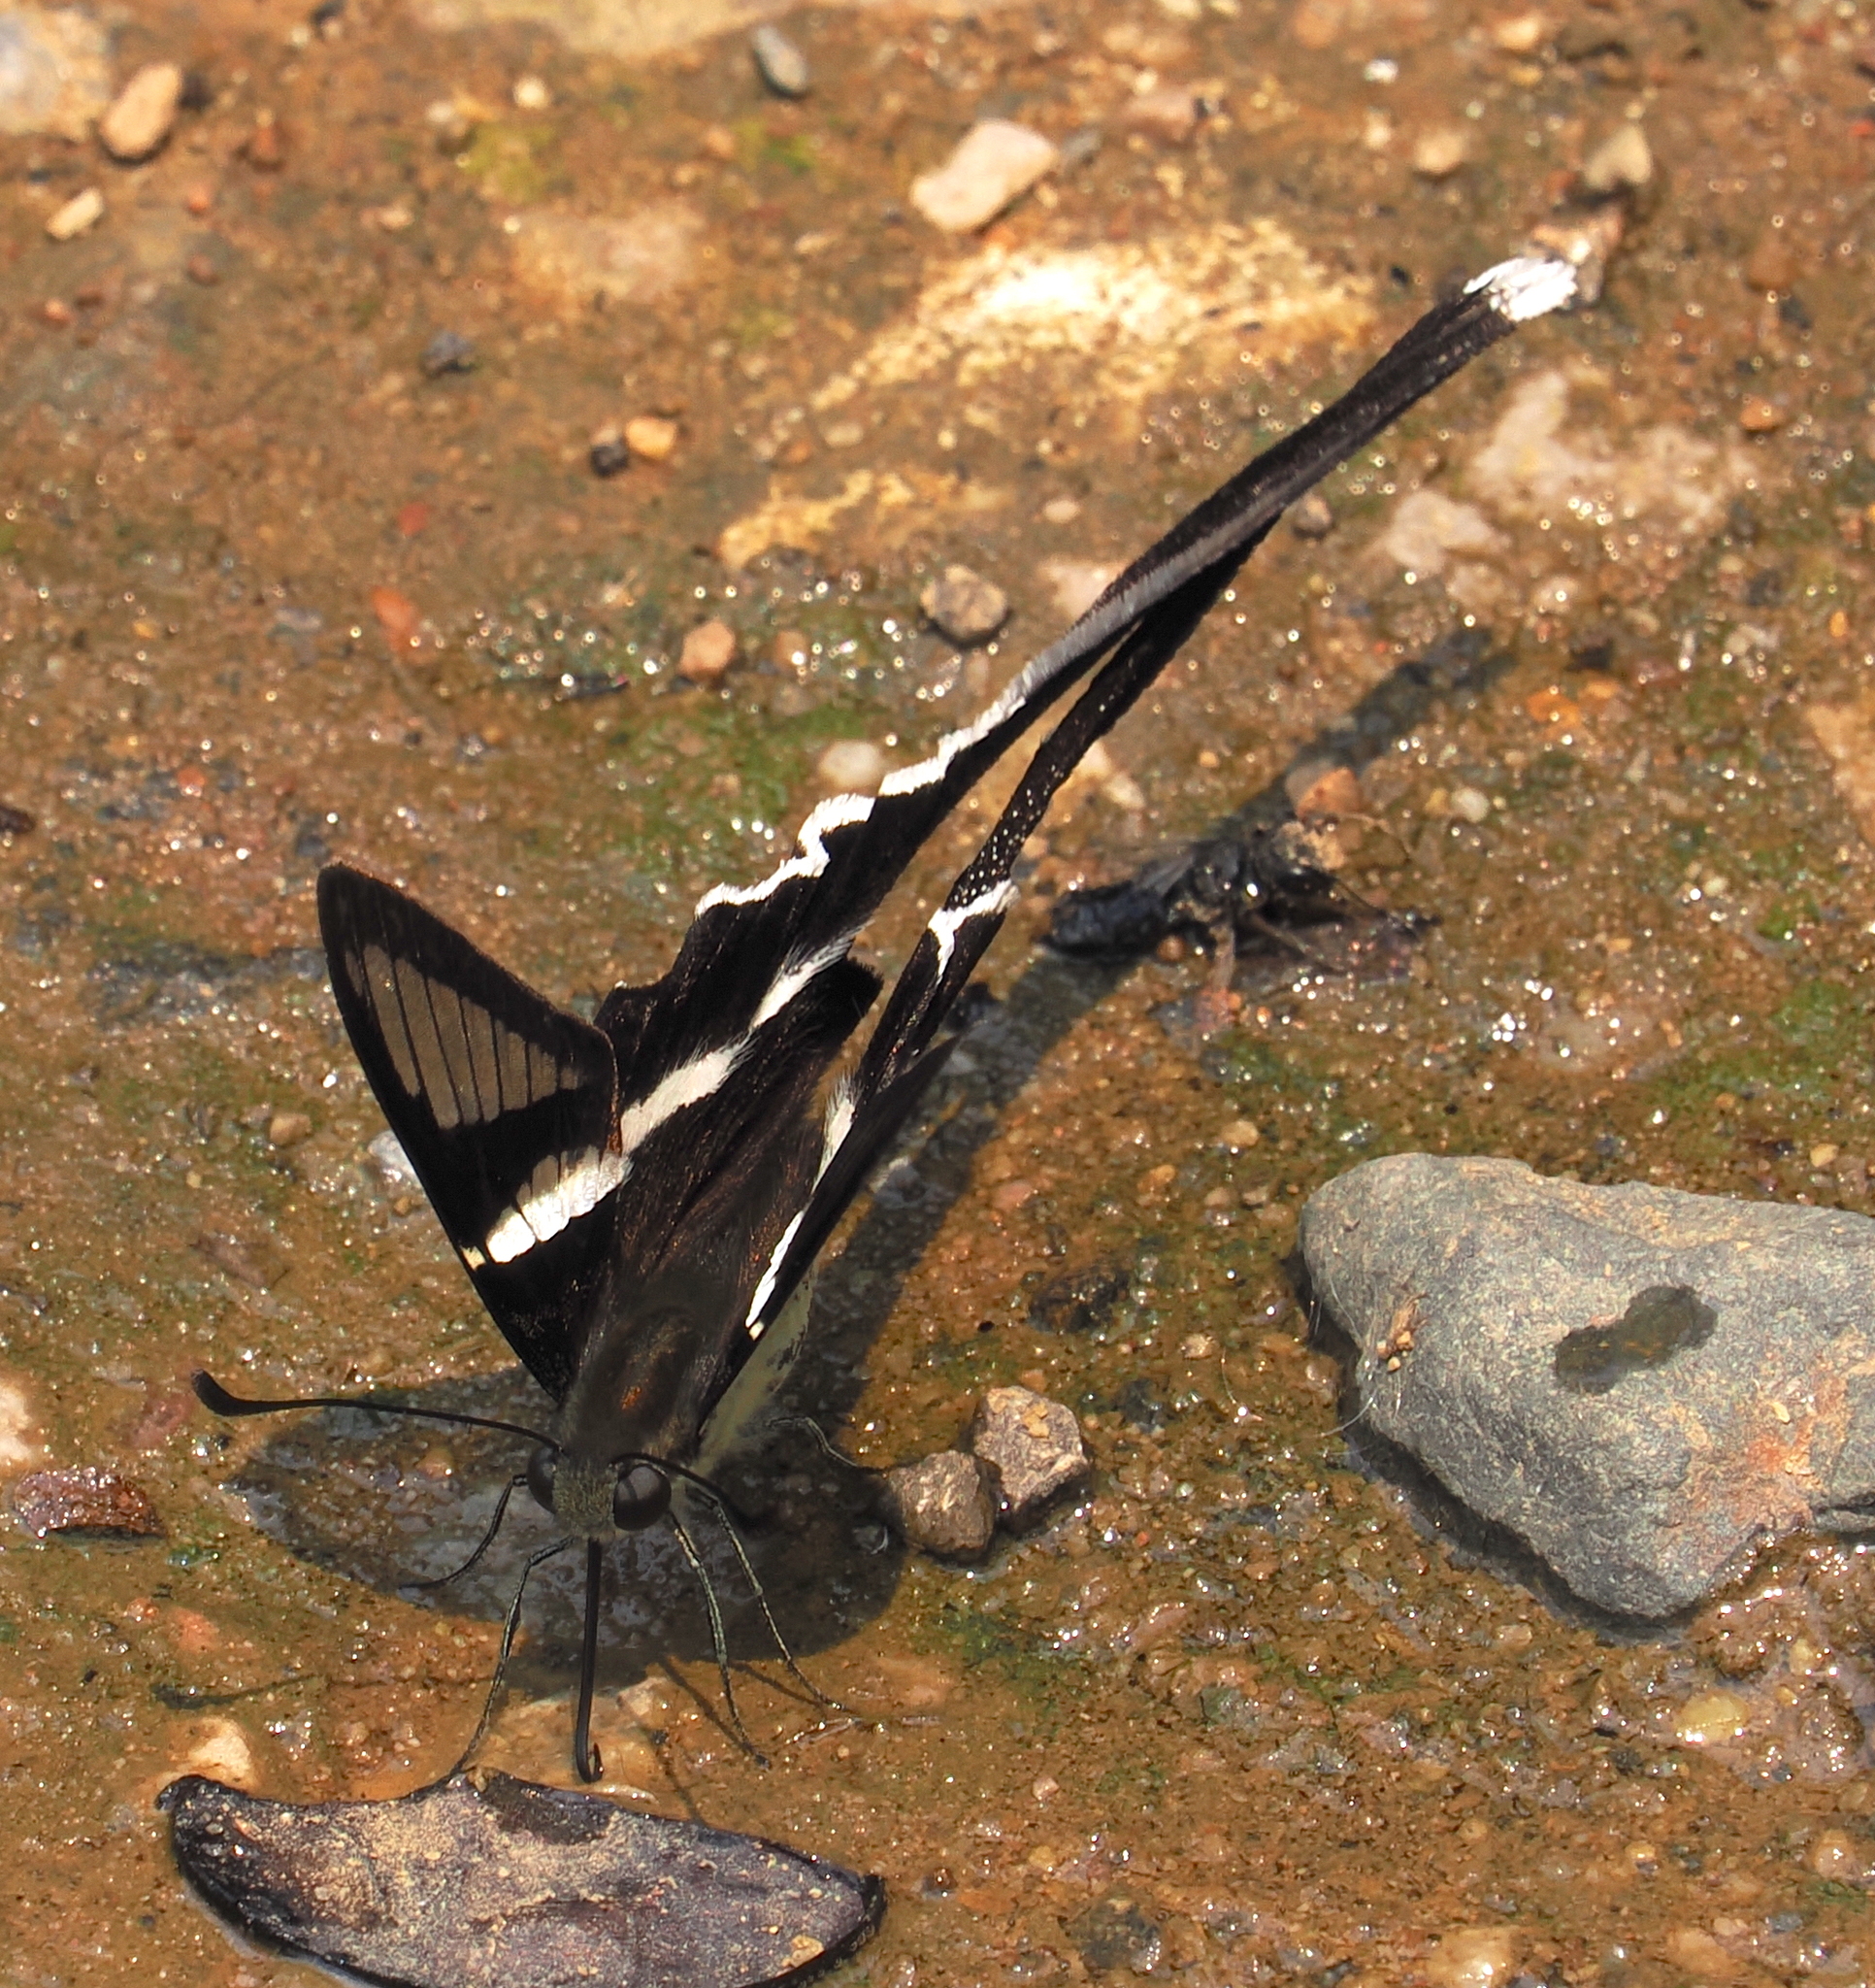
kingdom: Animalia
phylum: Arthropoda
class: Insecta
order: Lepidoptera
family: Papilionidae
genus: Lamproptera
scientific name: Lamproptera curius
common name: White dragontail
